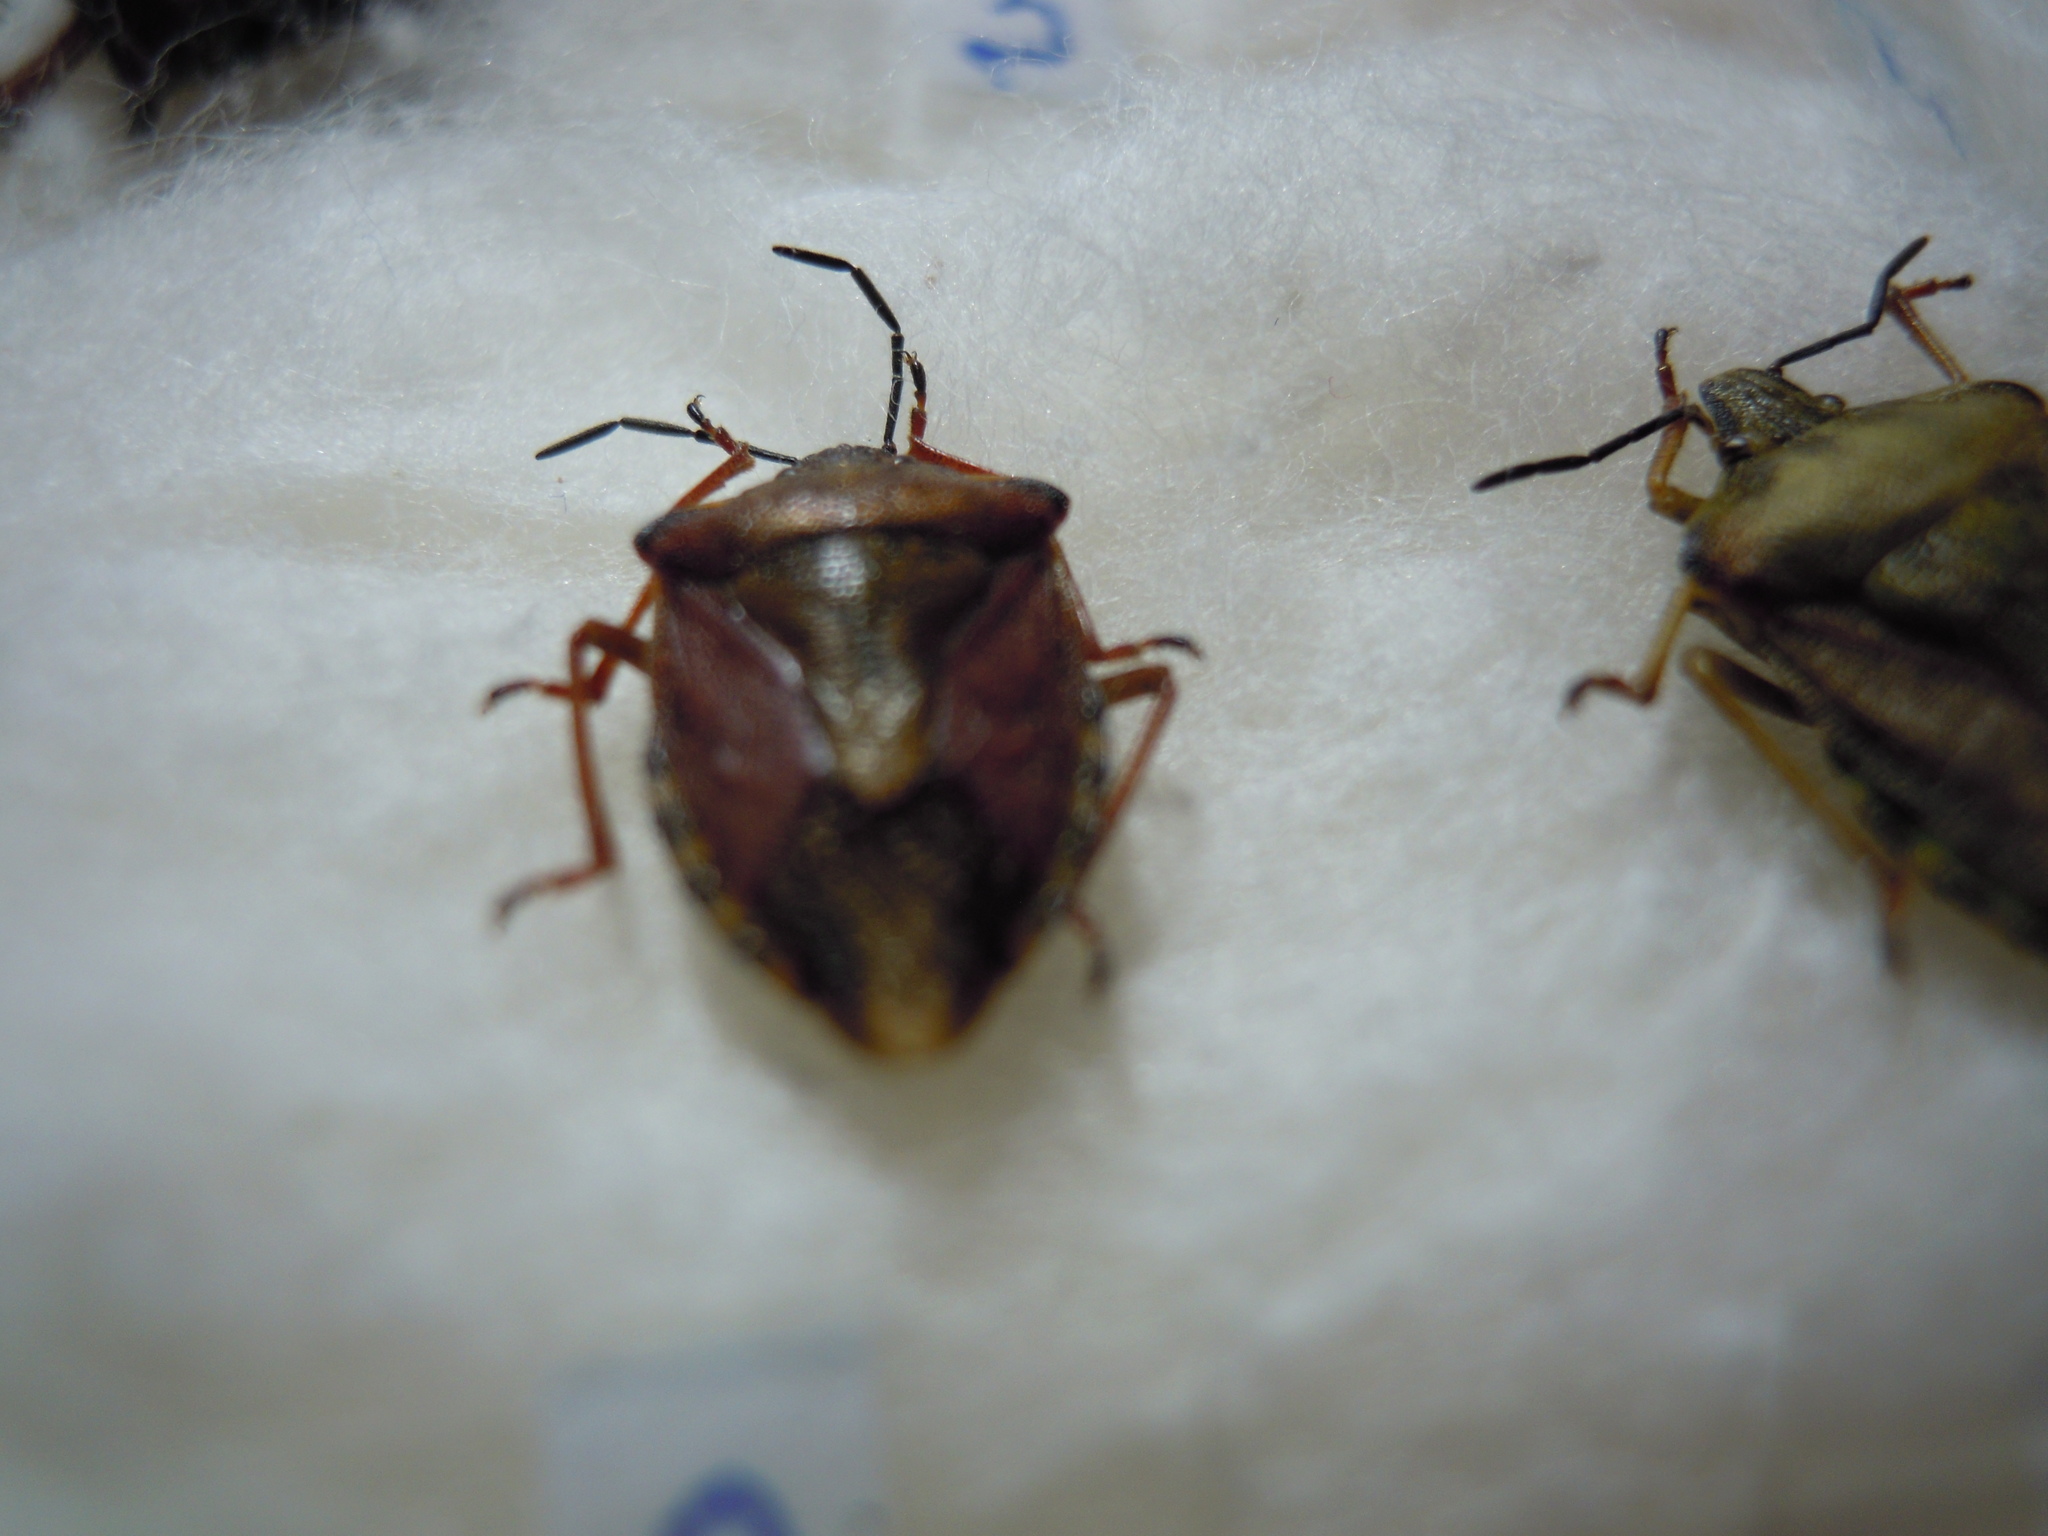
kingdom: Animalia
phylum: Arthropoda
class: Insecta
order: Hemiptera
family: Pentatomidae
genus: Carpocoris
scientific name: Carpocoris purpureipennis
